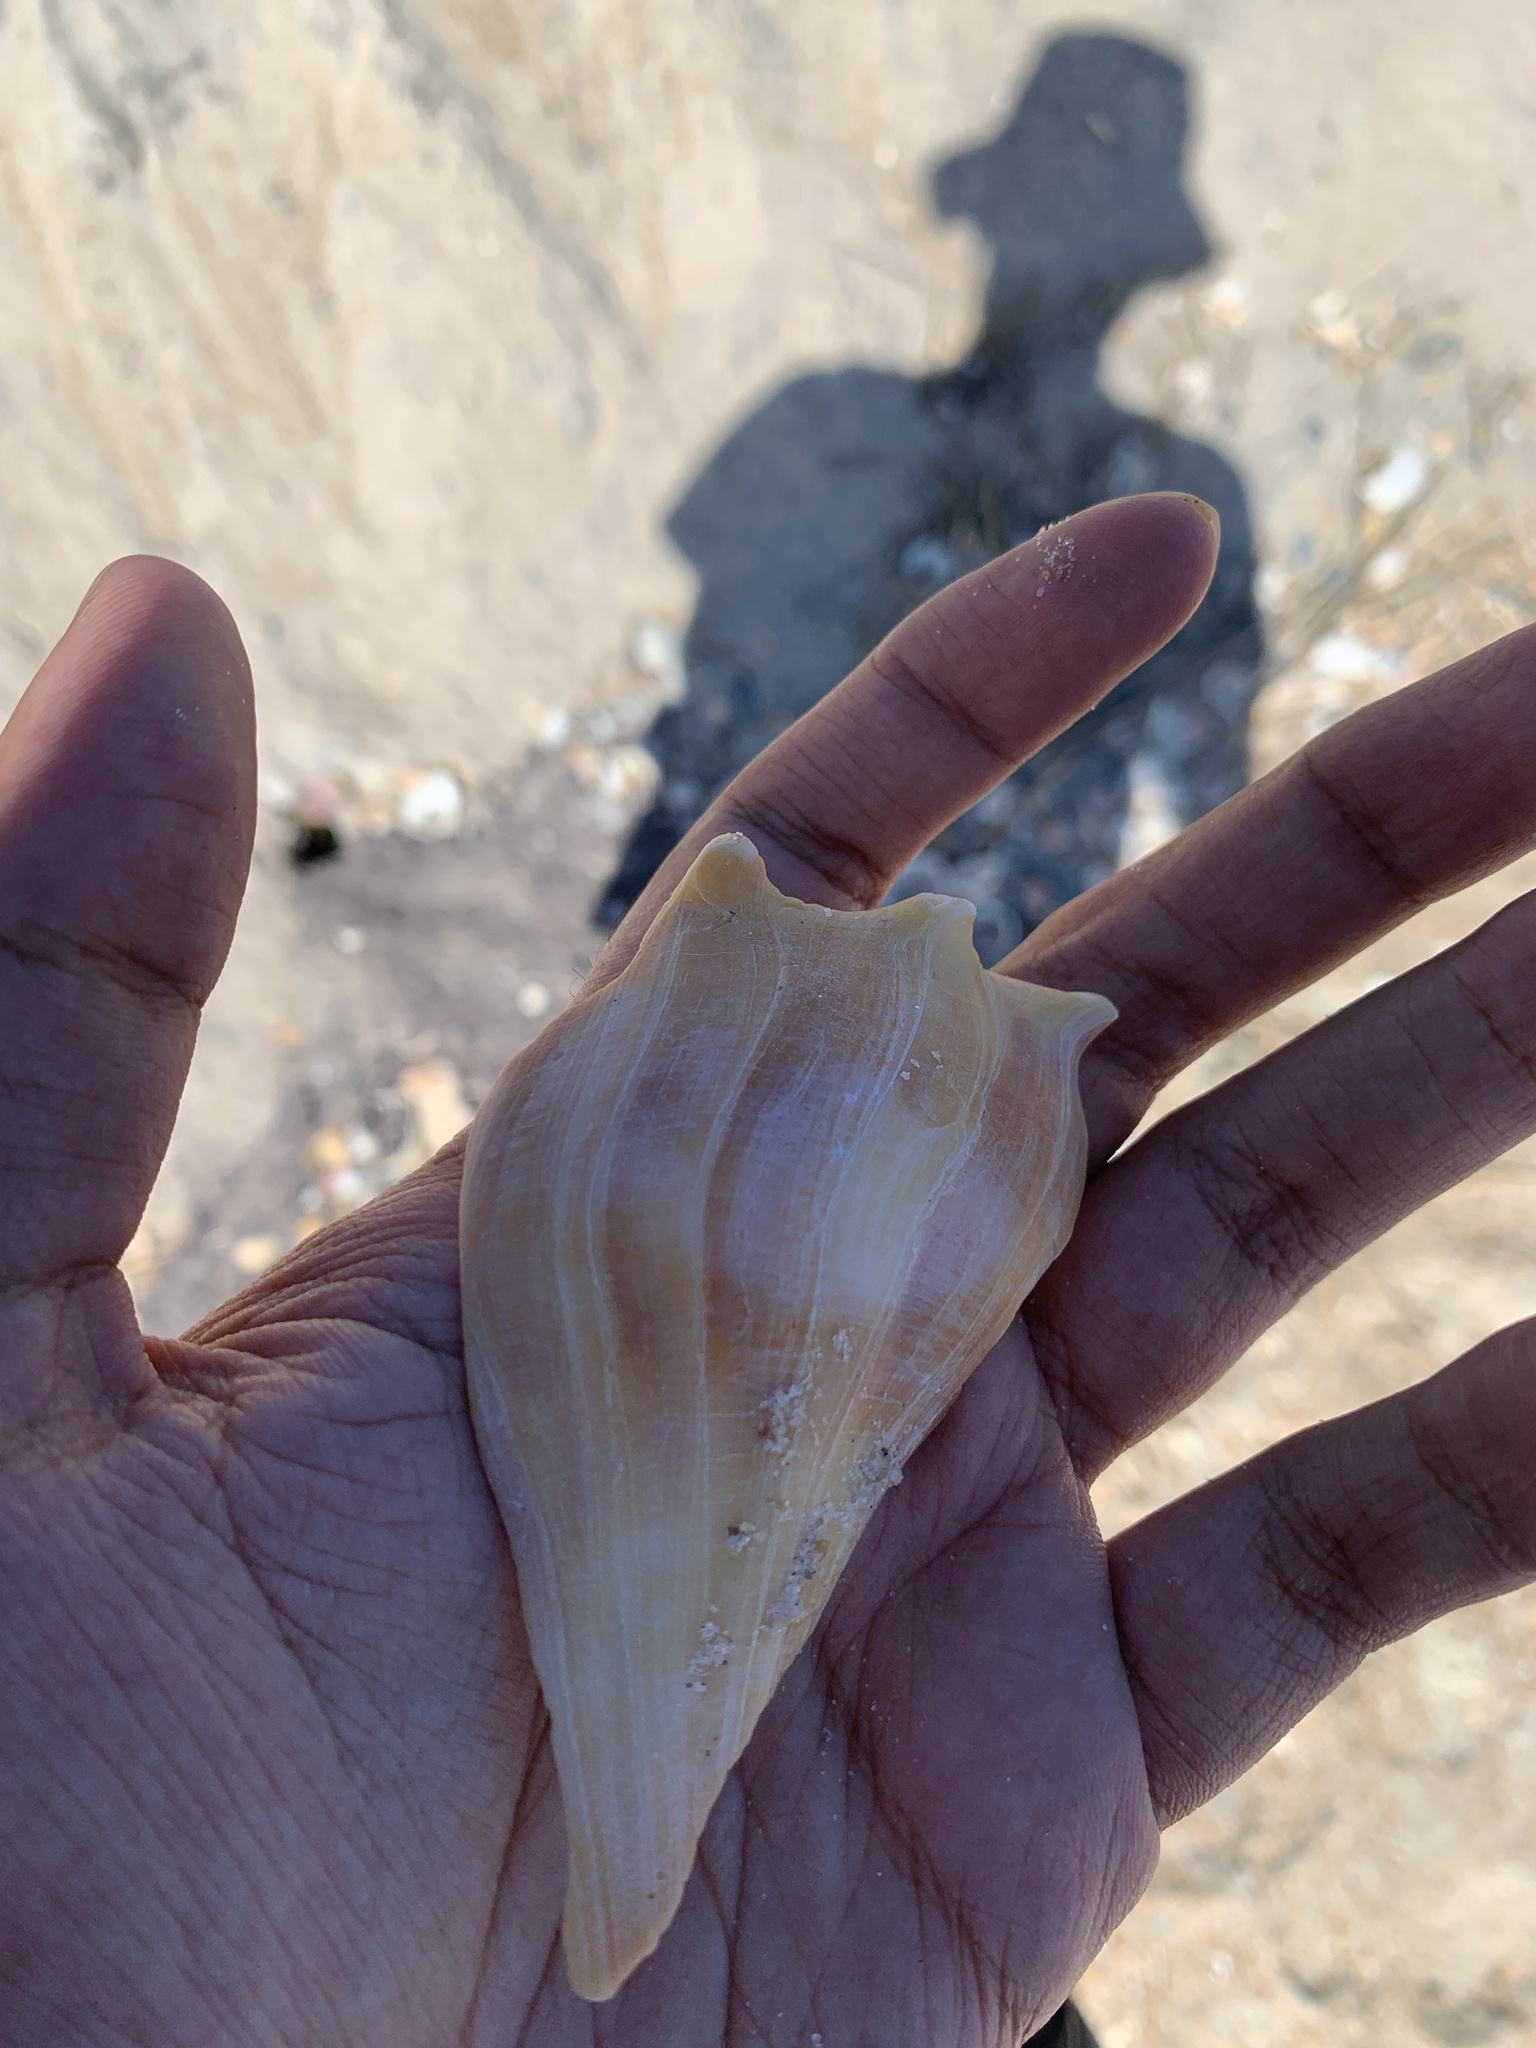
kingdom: Animalia
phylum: Mollusca
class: Gastropoda
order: Neogastropoda
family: Busyconidae
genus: Busycon
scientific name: Busycon carica
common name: Knobbed whelk
